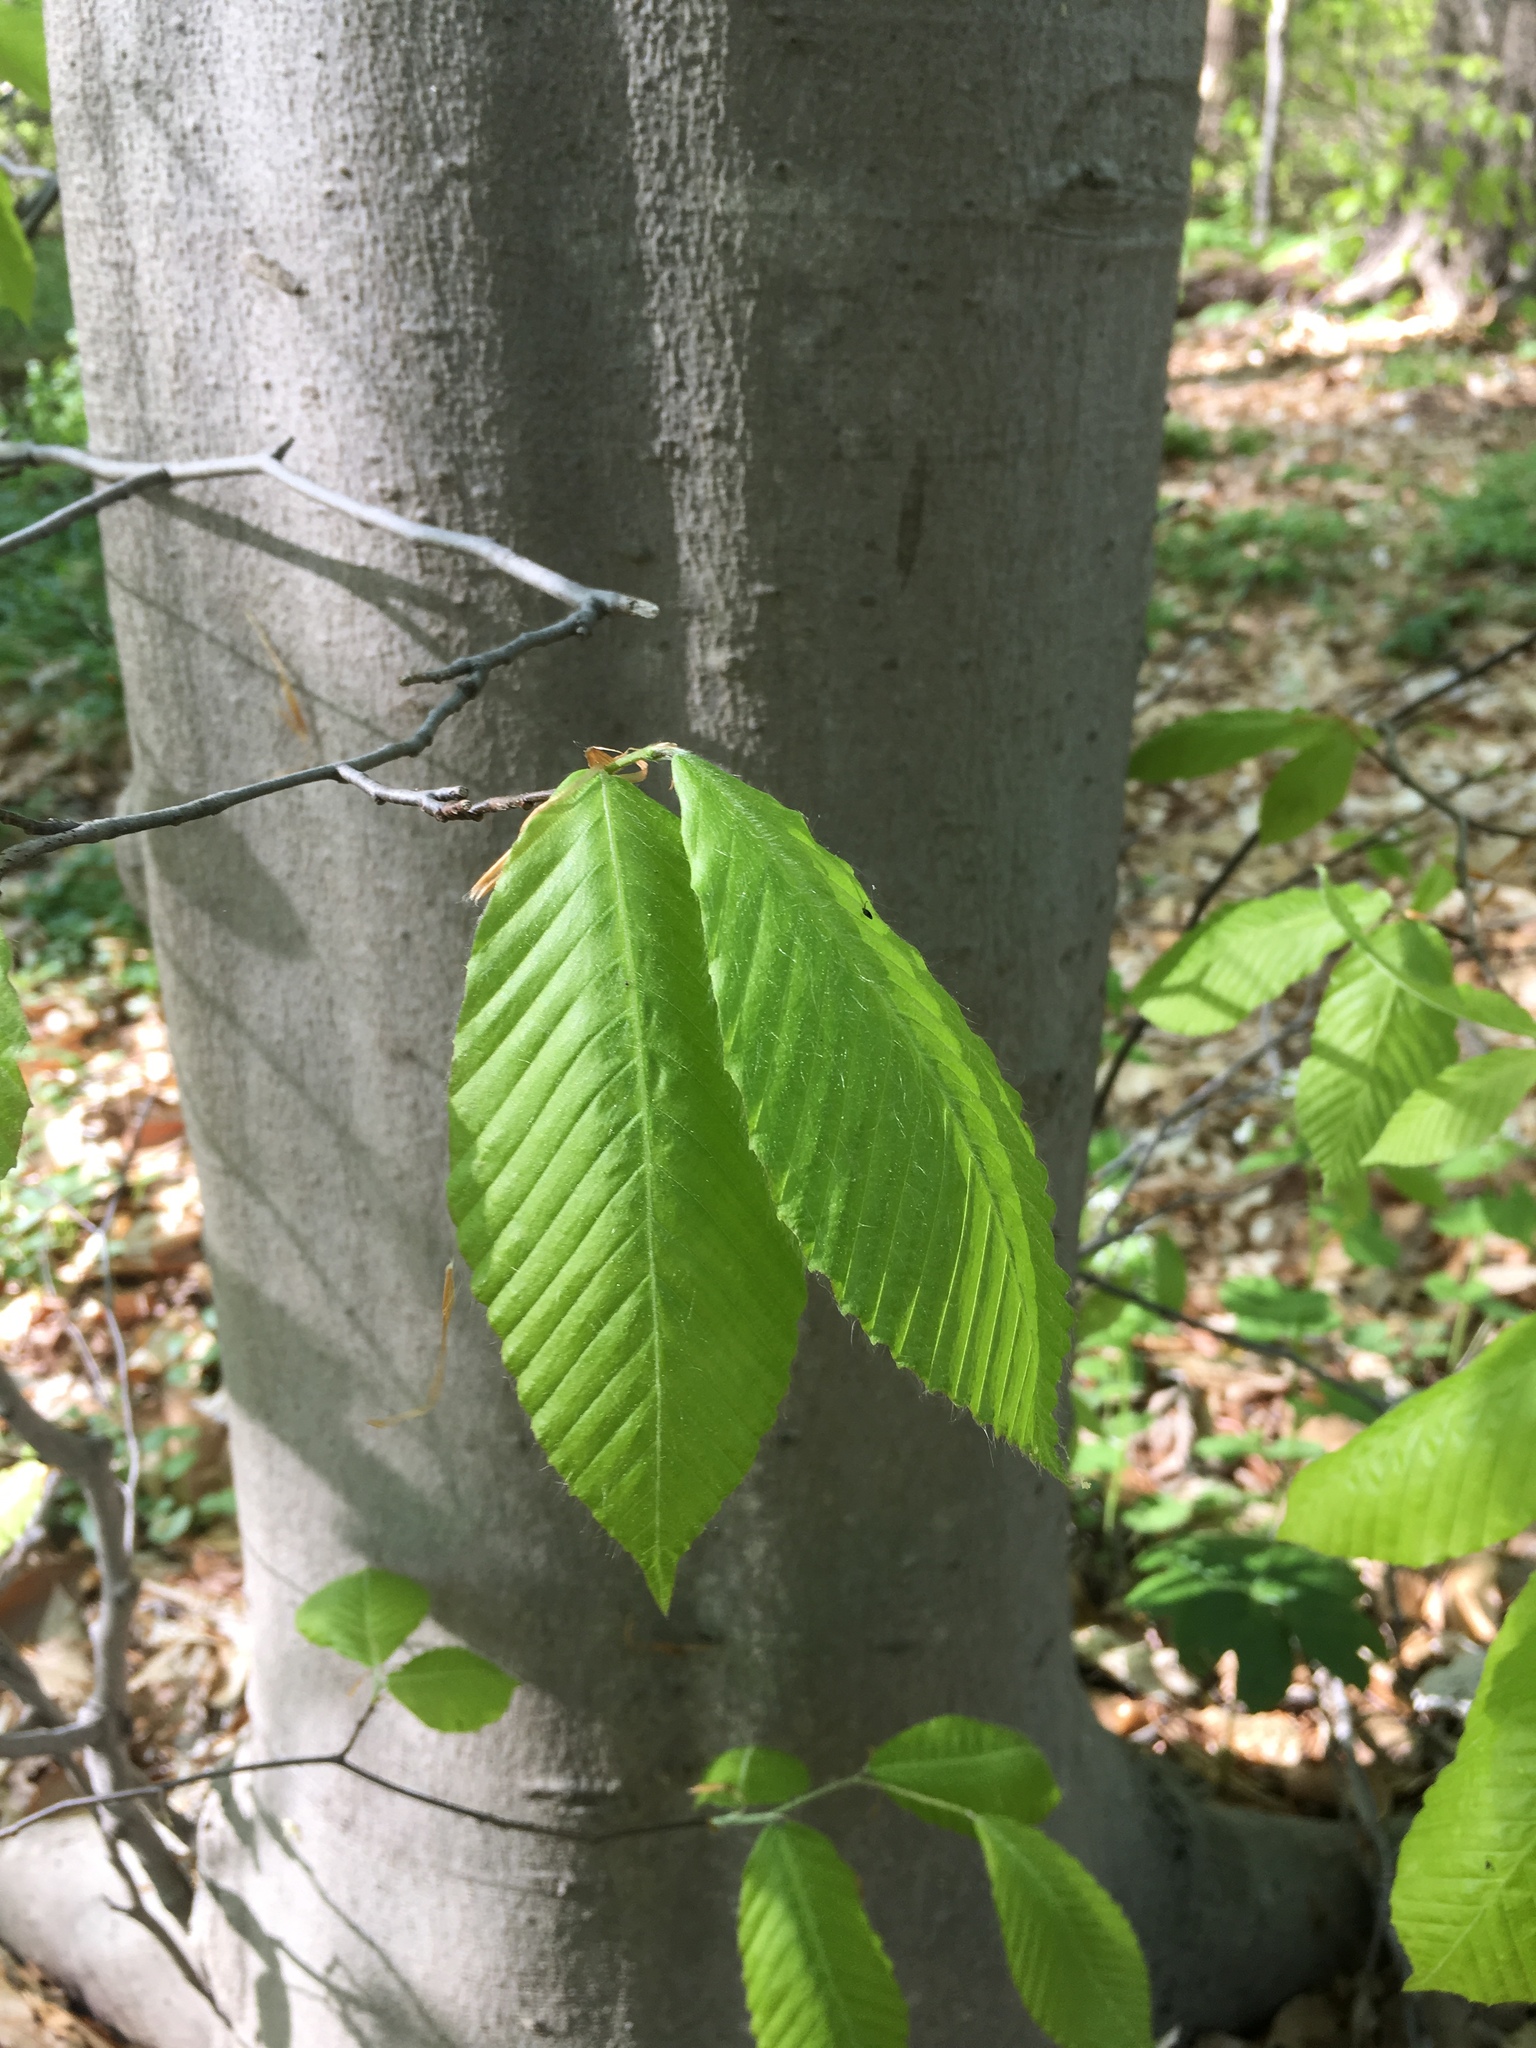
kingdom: Plantae
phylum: Tracheophyta
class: Magnoliopsida
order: Fagales
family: Fagaceae
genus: Fagus
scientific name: Fagus grandifolia
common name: American beech
